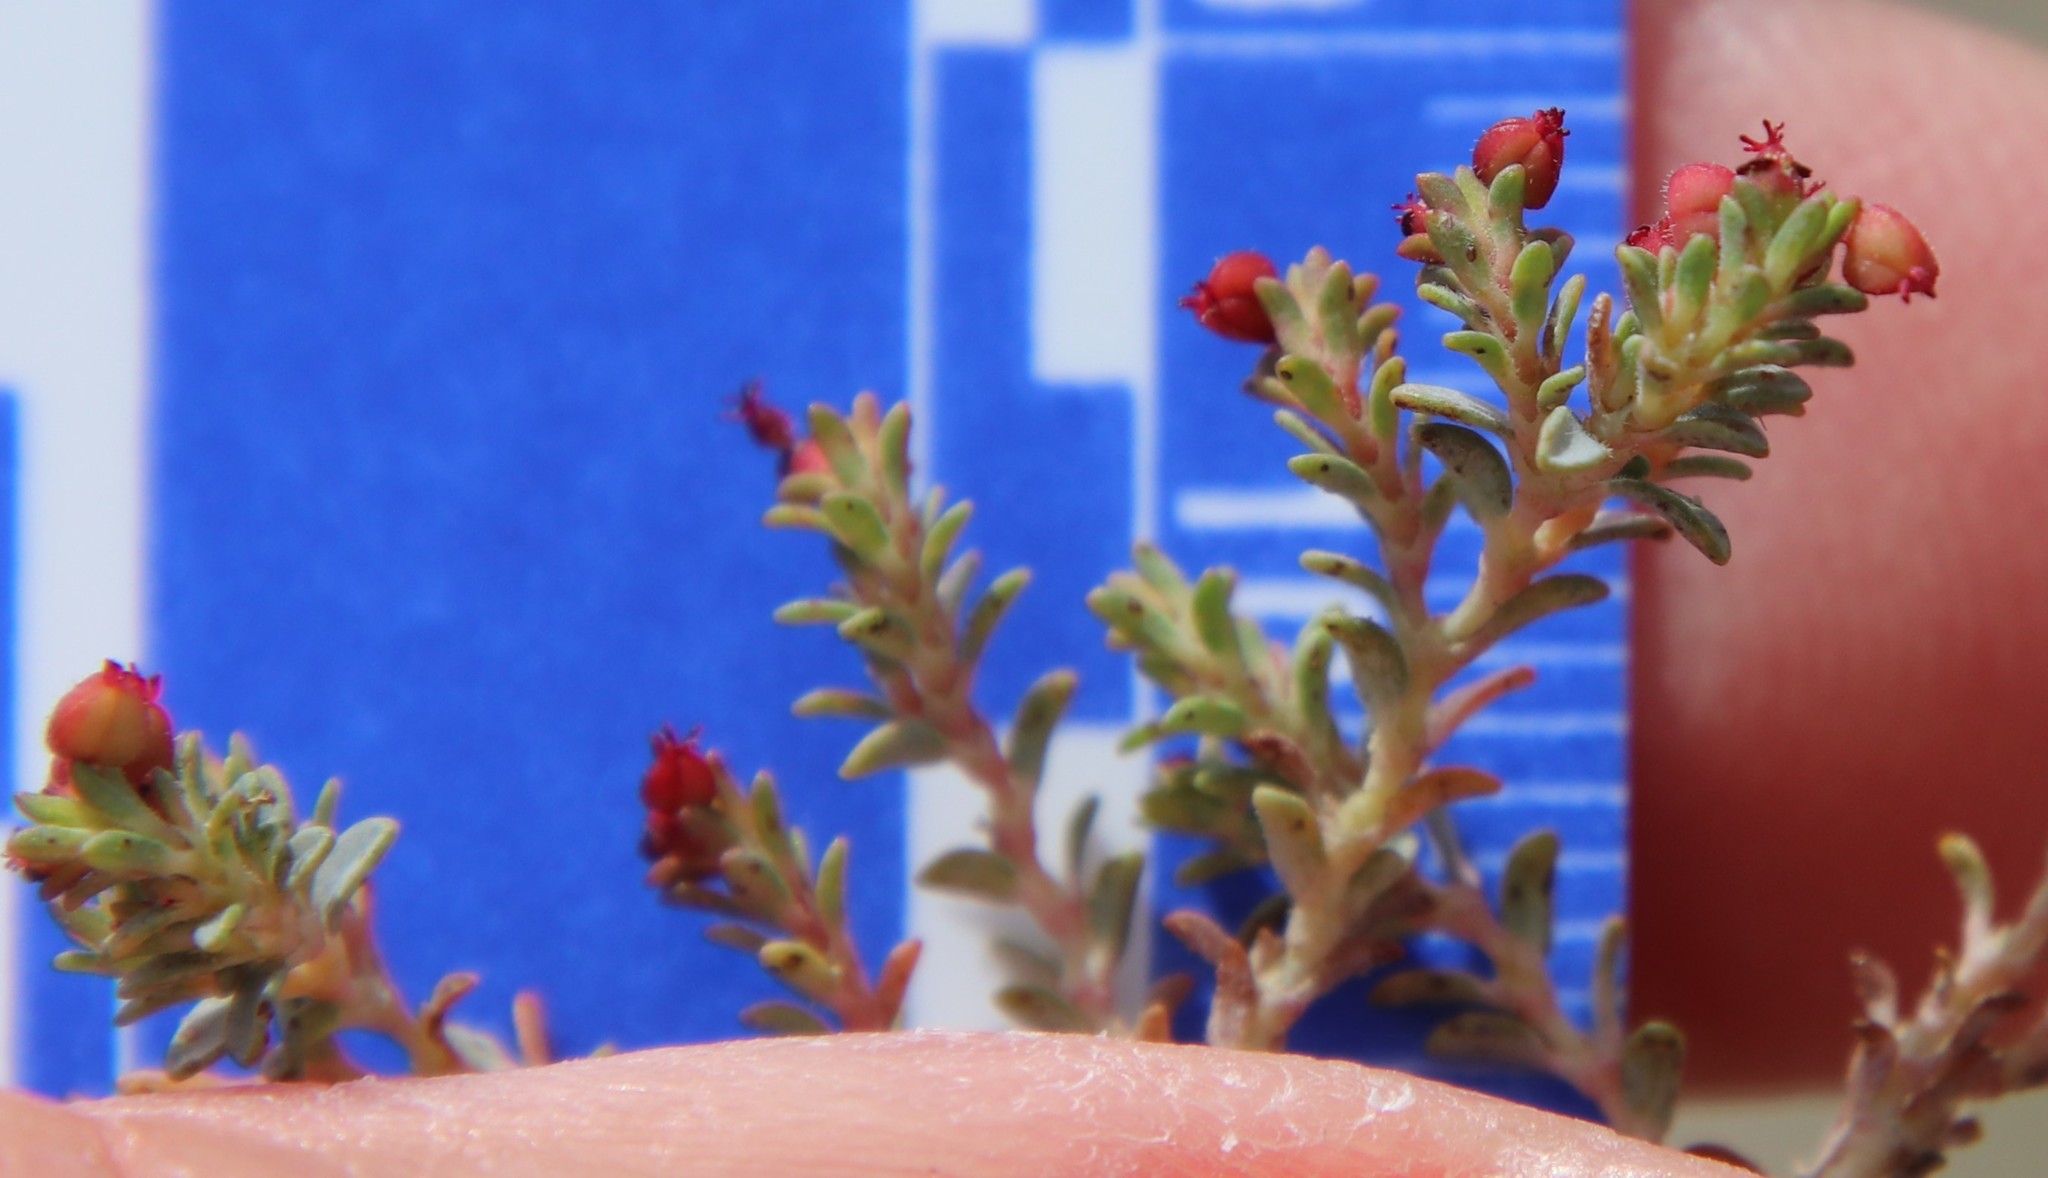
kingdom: Plantae
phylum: Tracheophyta
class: Magnoliopsida
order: Malpighiales
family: Euphorbiaceae
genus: Euphorbia
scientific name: Euphorbia polycarpa
